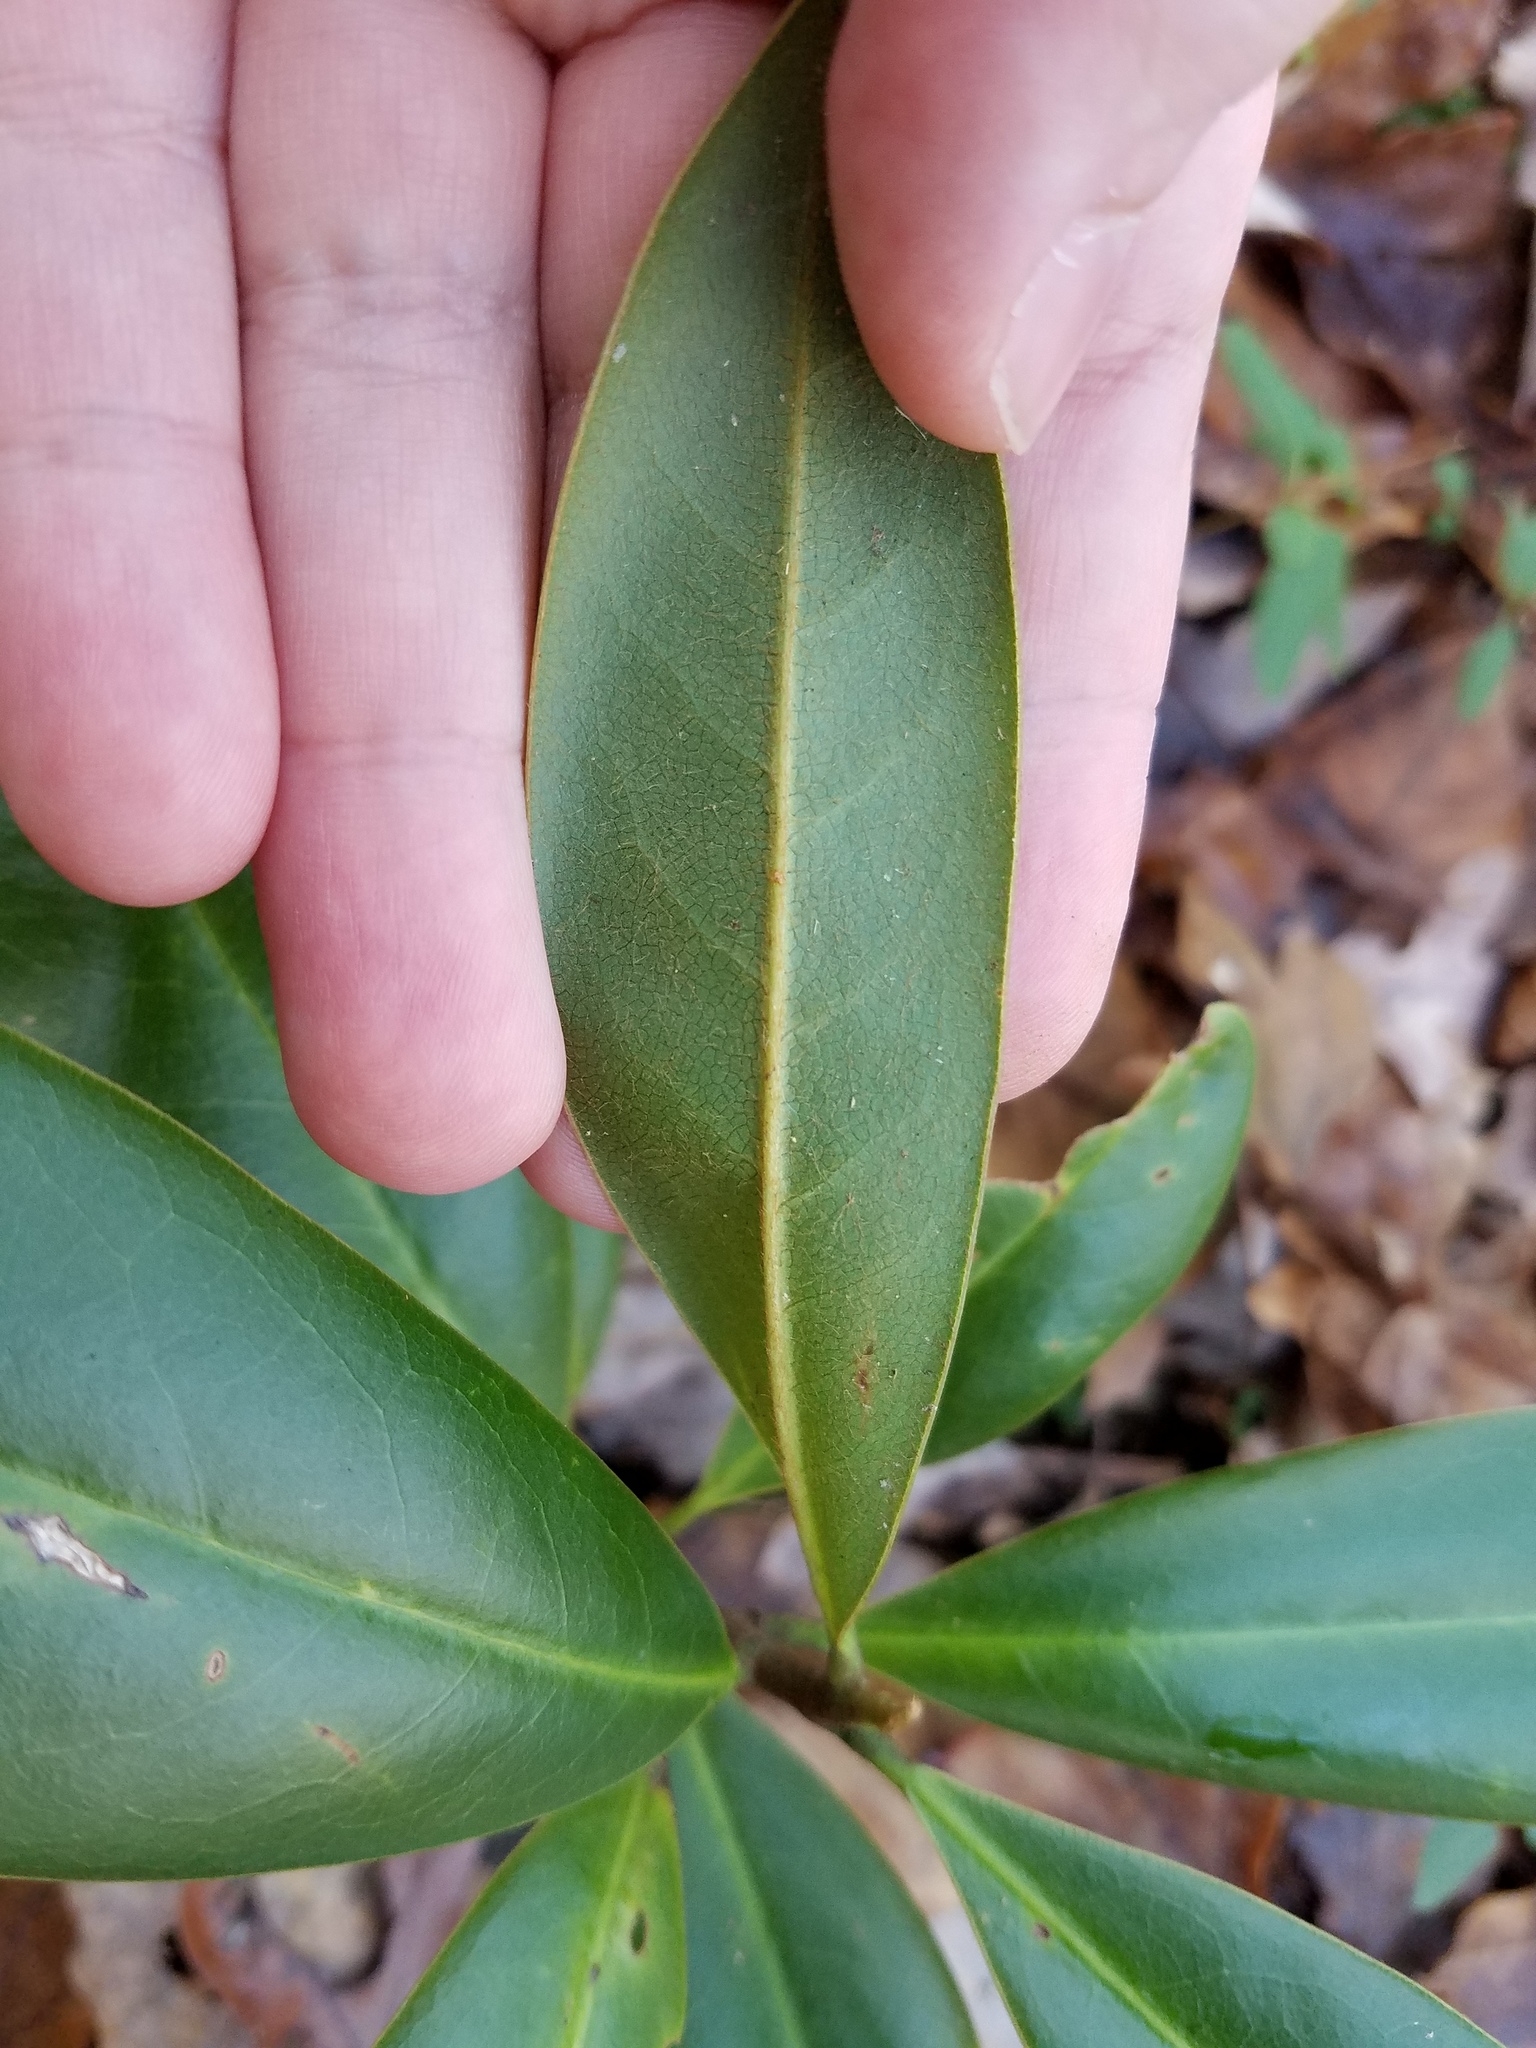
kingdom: Plantae
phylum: Tracheophyta
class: Magnoliopsida
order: Magnoliales
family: Magnoliaceae
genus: Magnolia
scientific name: Magnolia grandiflora
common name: Southern magnolia
